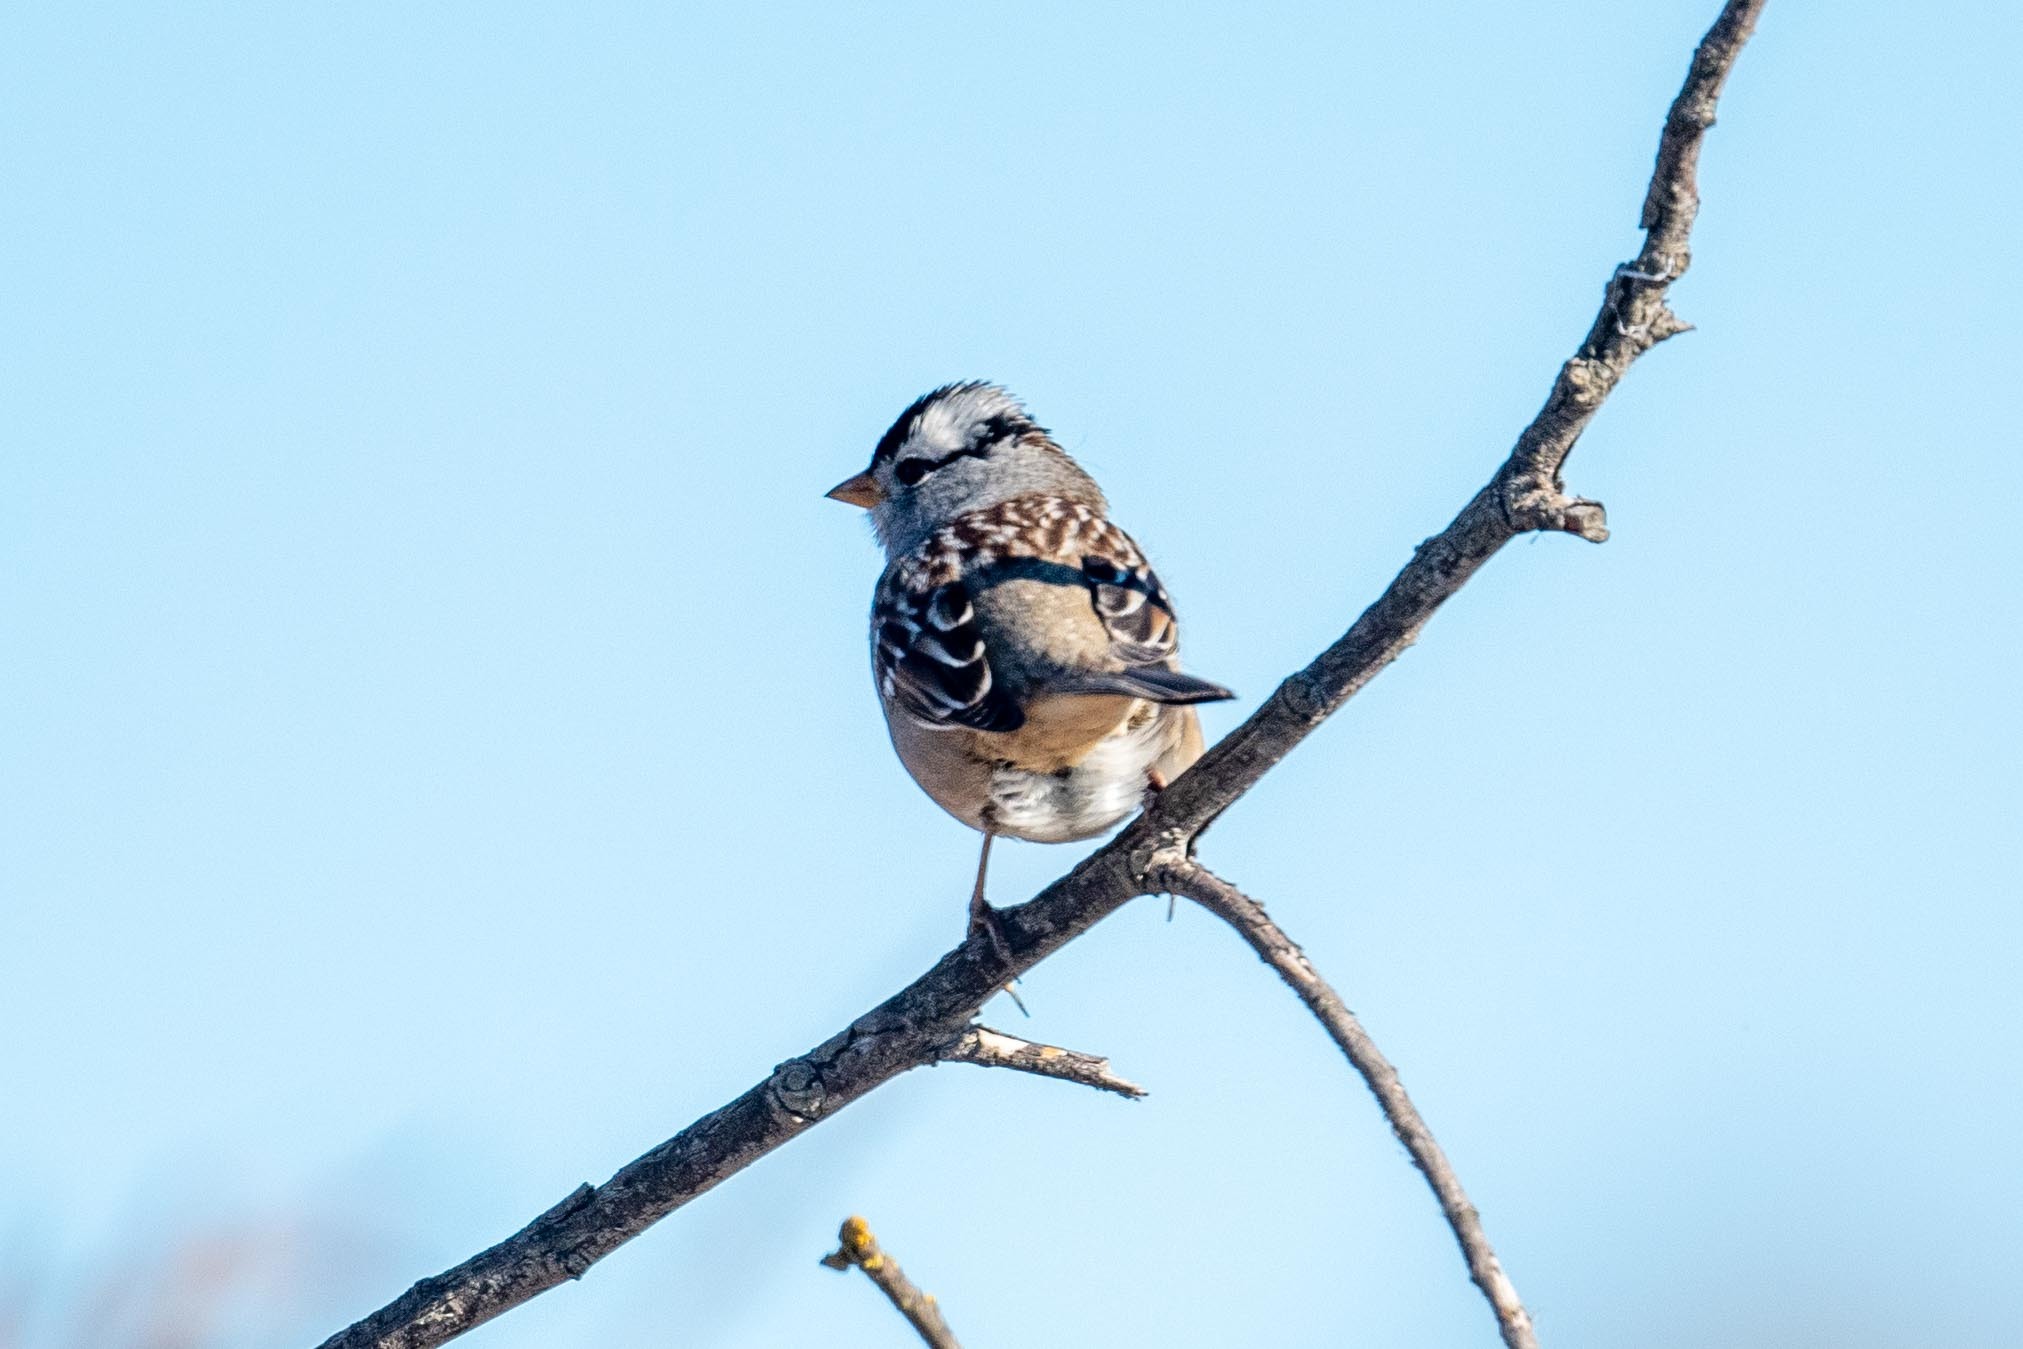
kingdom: Animalia
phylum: Chordata
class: Aves
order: Passeriformes
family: Passerellidae
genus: Zonotrichia
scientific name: Zonotrichia leucophrys
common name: White-crowned sparrow
